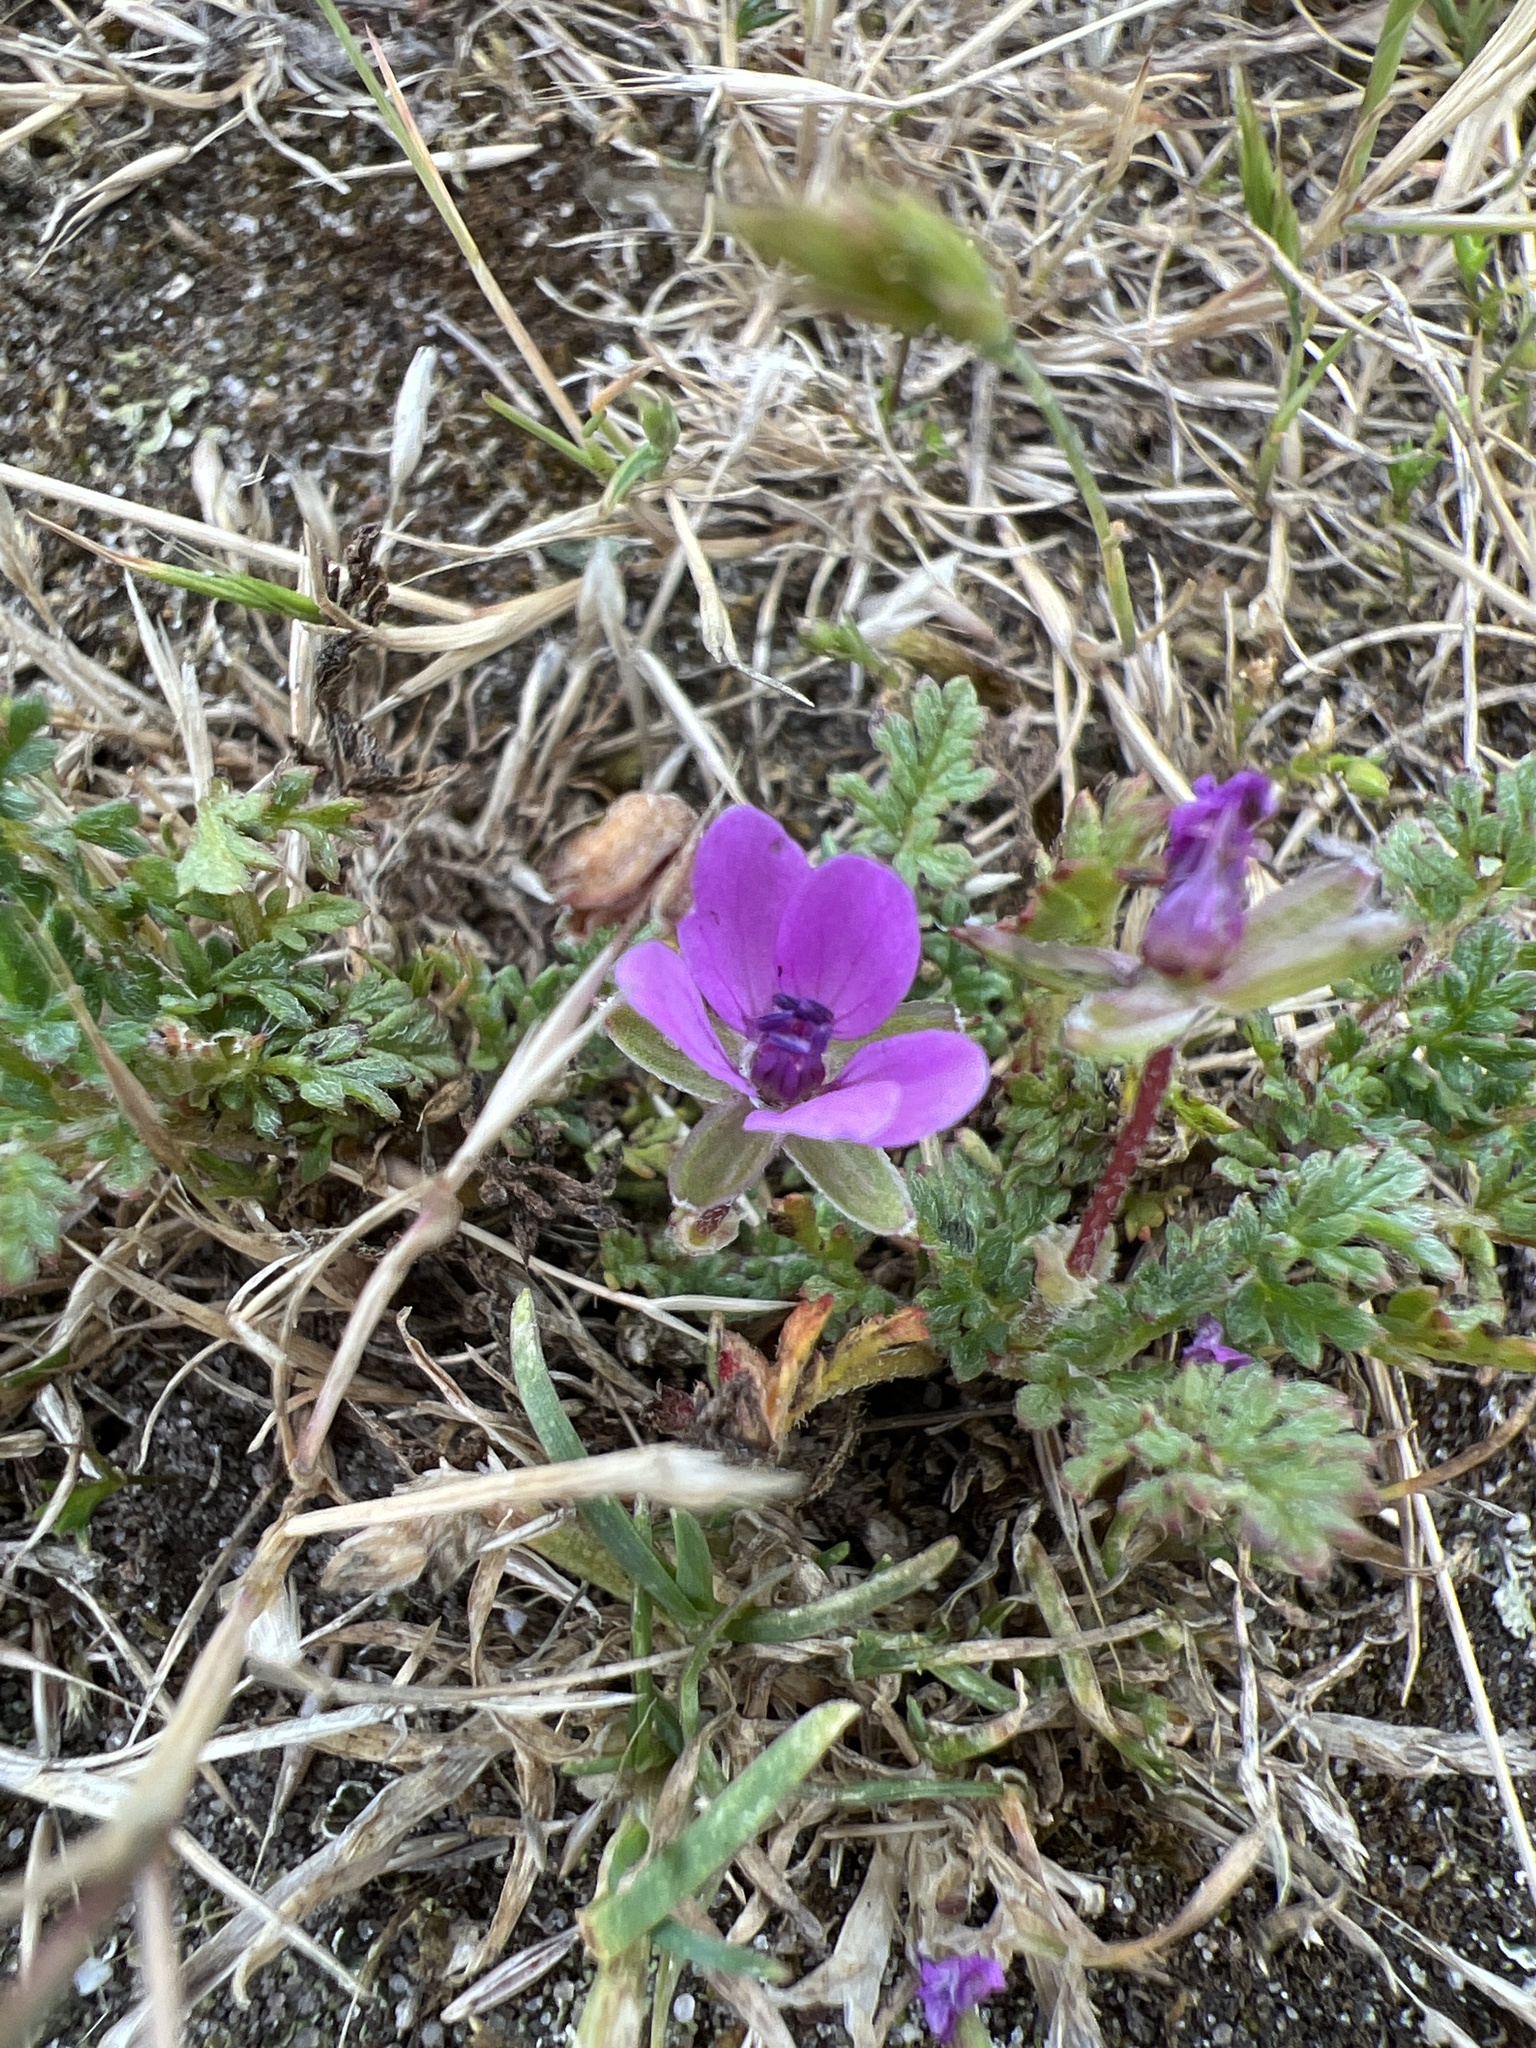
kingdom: Plantae
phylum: Tracheophyta
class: Magnoliopsida
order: Geraniales
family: Geraniaceae
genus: Erodium
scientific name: Erodium cicutarium
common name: Common stork's-bill
